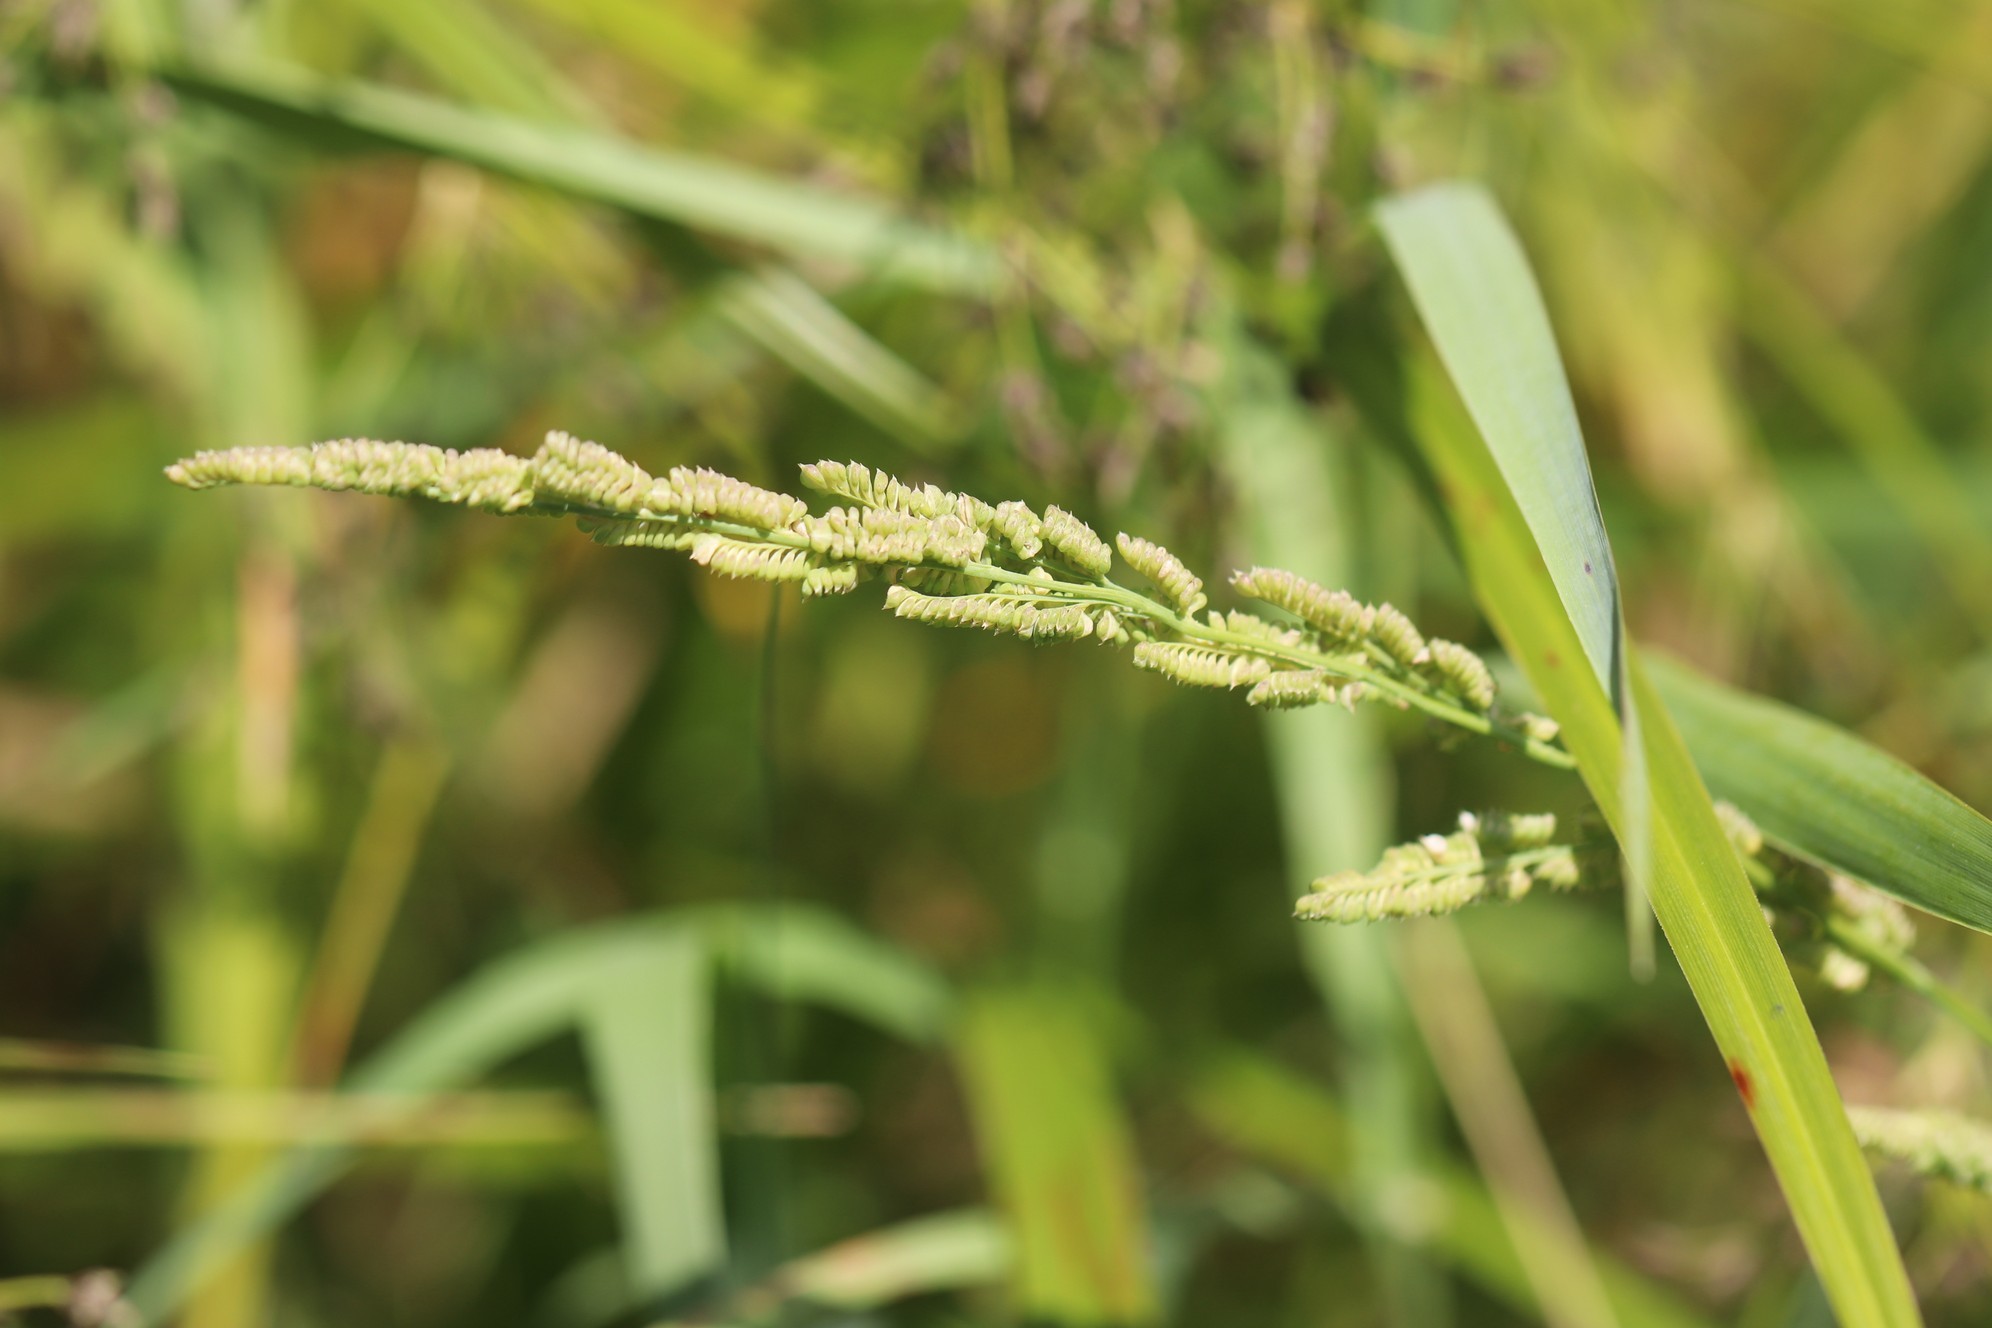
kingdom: Plantae
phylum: Tracheophyta
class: Liliopsida
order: Poales
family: Poaceae
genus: Beckmannia
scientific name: Beckmannia syzigachne
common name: American slough-grass
